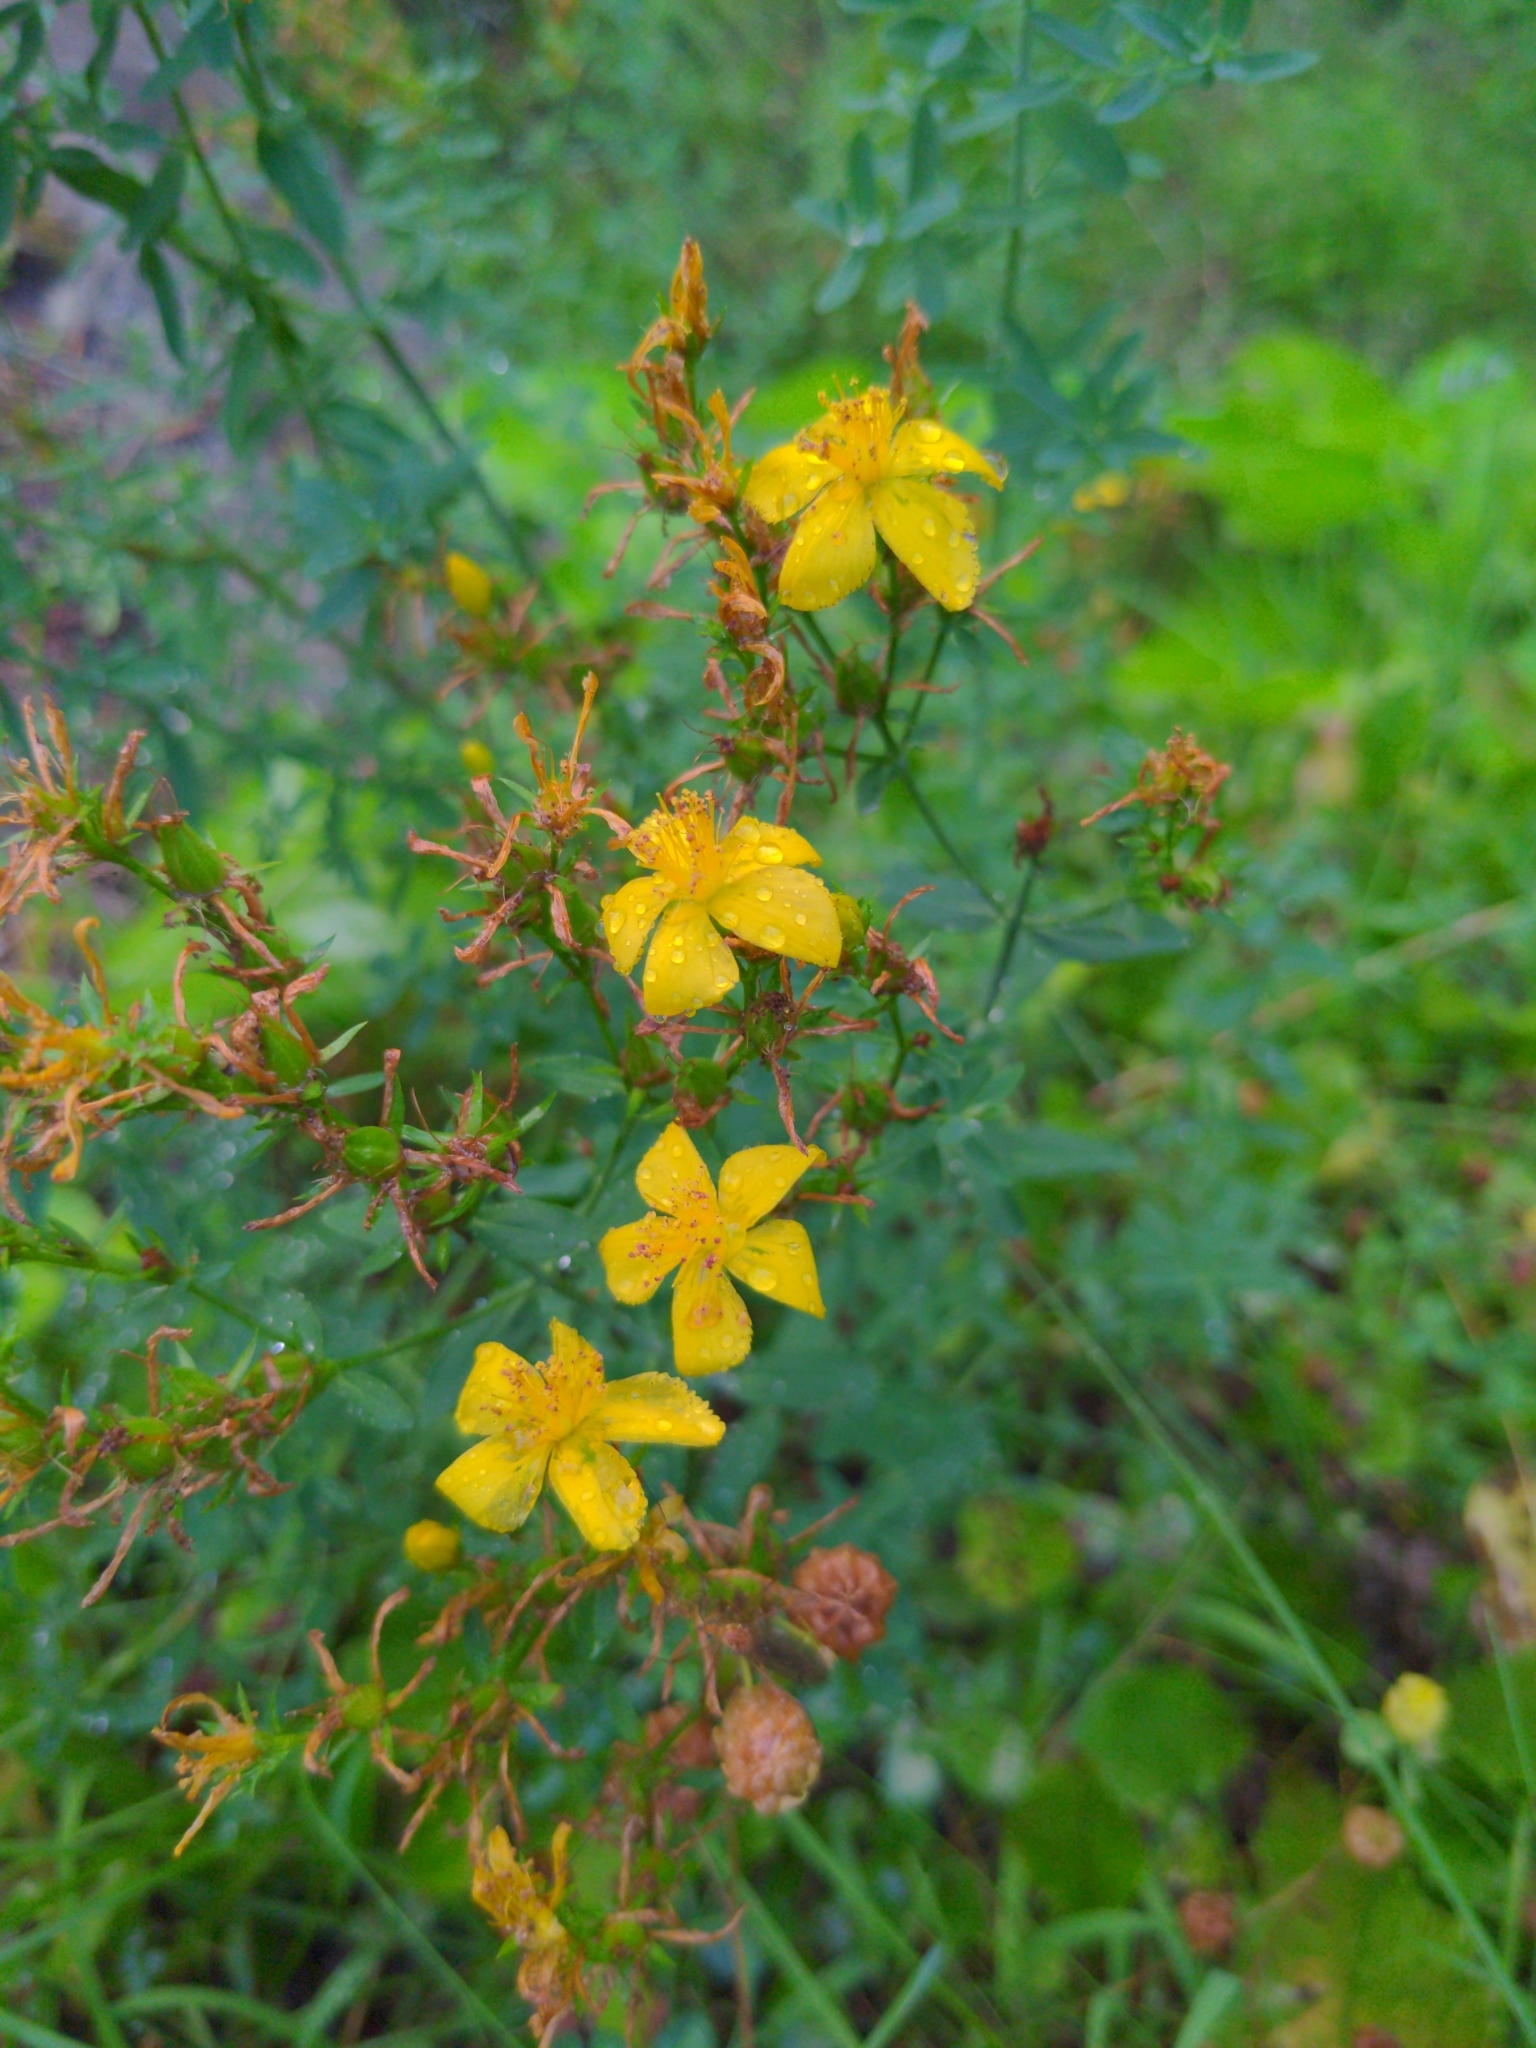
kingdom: Plantae
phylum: Tracheophyta
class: Magnoliopsida
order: Malpighiales
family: Hypericaceae
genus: Hypericum
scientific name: Hypericum perforatum
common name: Common st. johnswort
